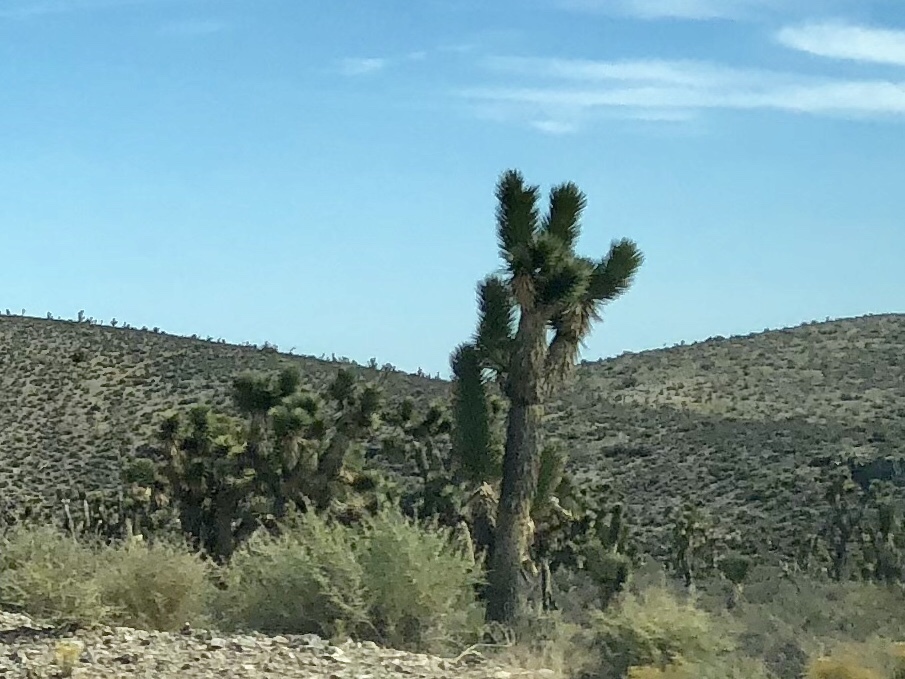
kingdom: Plantae
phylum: Tracheophyta
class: Liliopsida
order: Asparagales
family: Asparagaceae
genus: Yucca
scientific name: Yucca brevifolia
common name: Joshua tree
